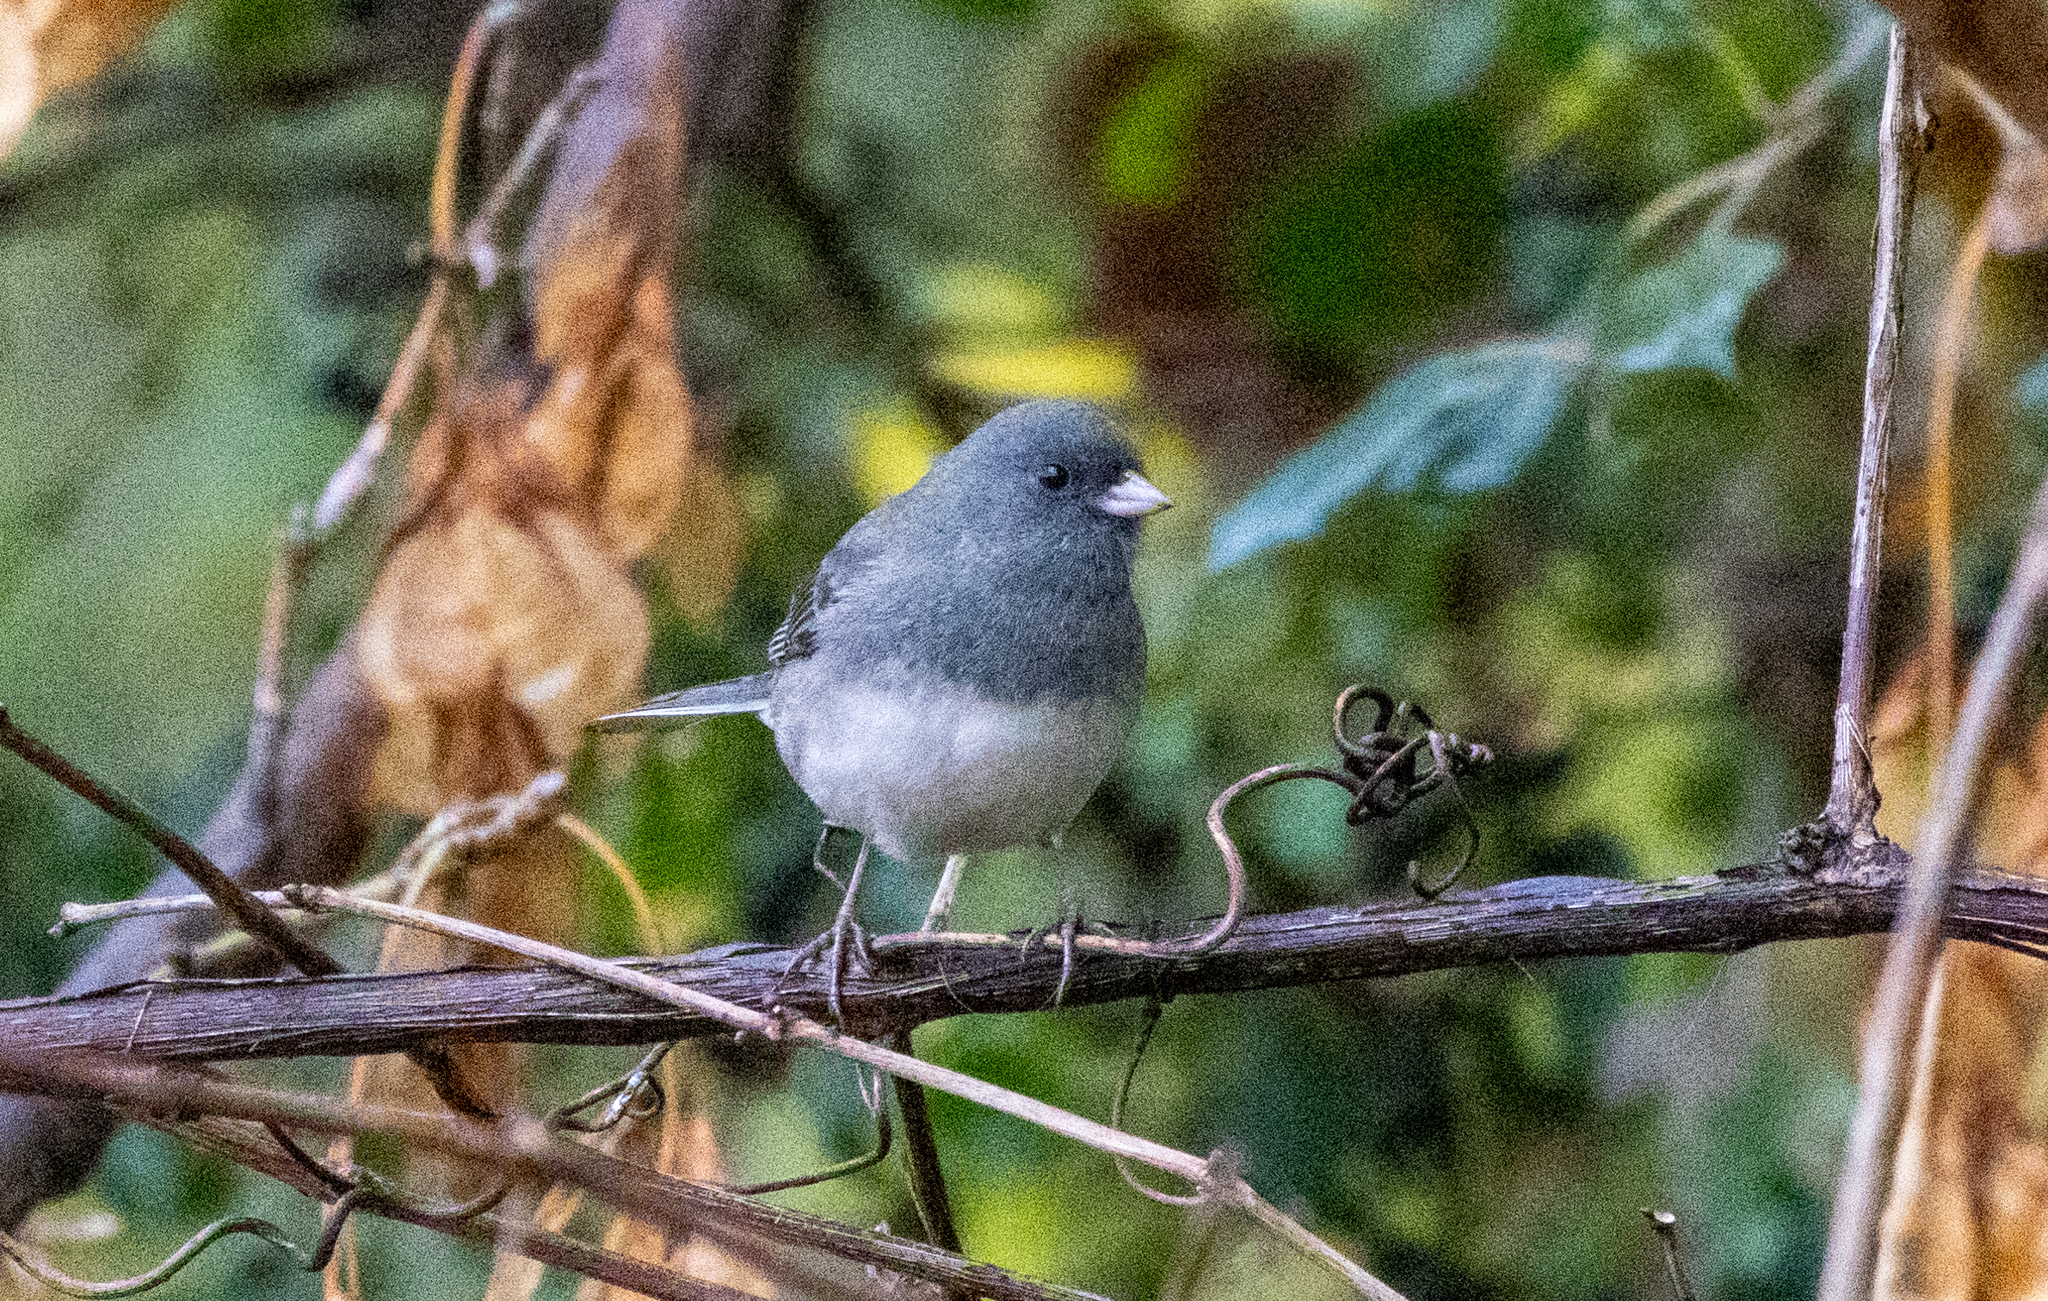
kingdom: Animalia
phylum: Chordata
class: Aves
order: Passeriformes
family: Passerellidae
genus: Junco
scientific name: Junco hyemalis
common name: Dark-eyed junco
